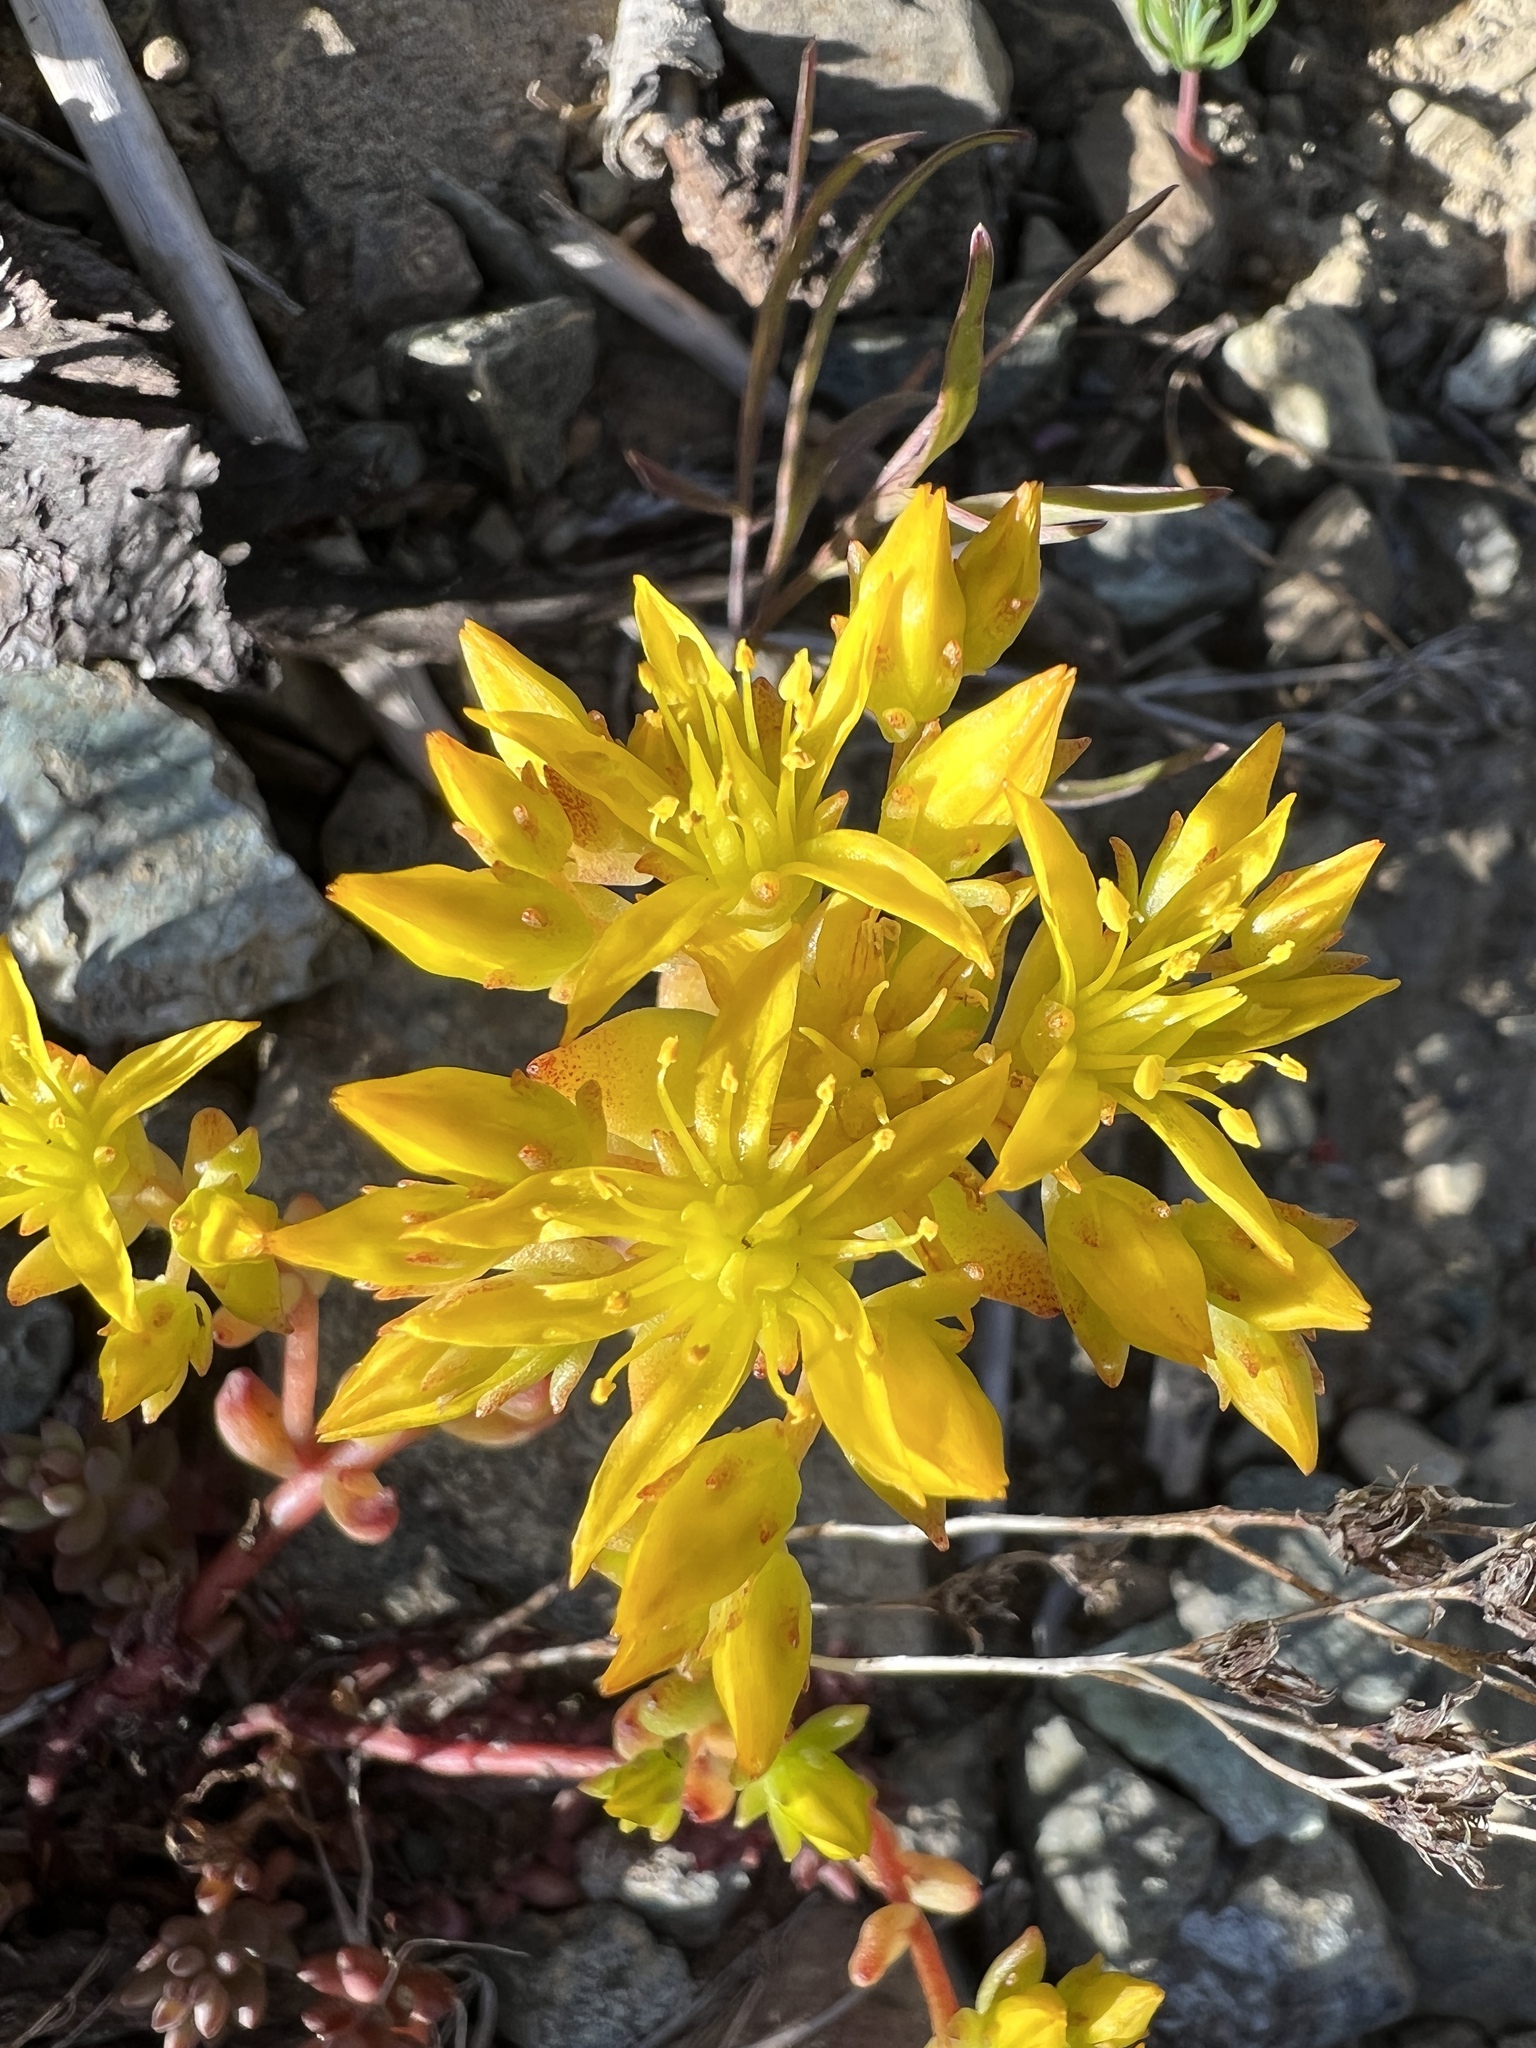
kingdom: Plantae
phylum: Tracheophyta
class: Magnoliopsida
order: Saxifragales
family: Crassulaceae
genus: Sedum
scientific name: Sedum rupicola
